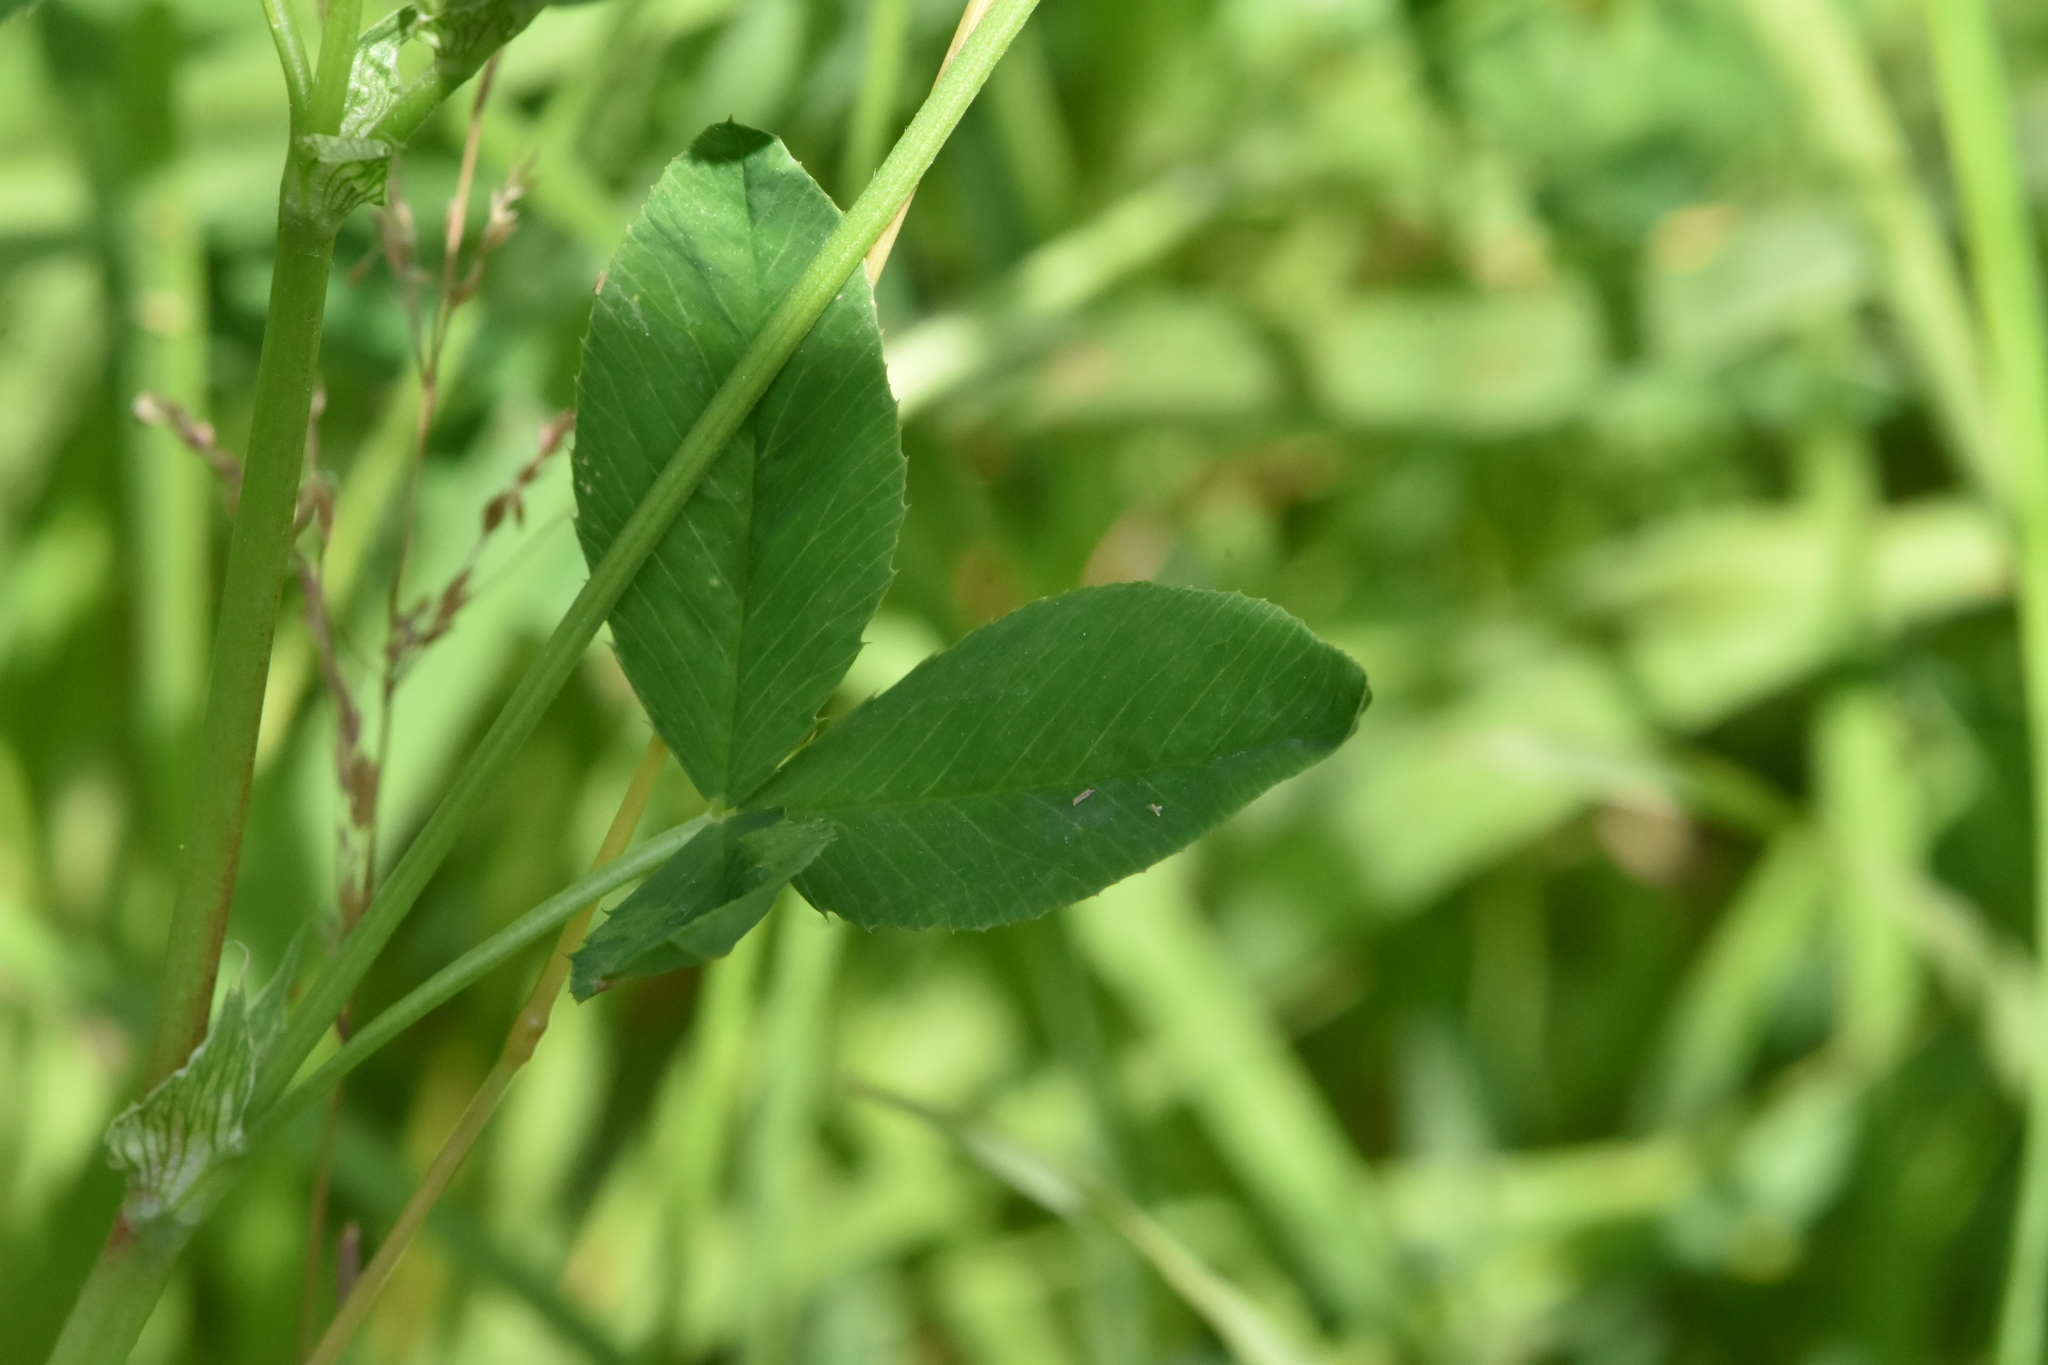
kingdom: Plantae
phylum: Tracheophyta
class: Magnoliopsida
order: Fabales
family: Fabaceae
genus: Trifolium
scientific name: Trifolium hybridum
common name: Alsike clover
